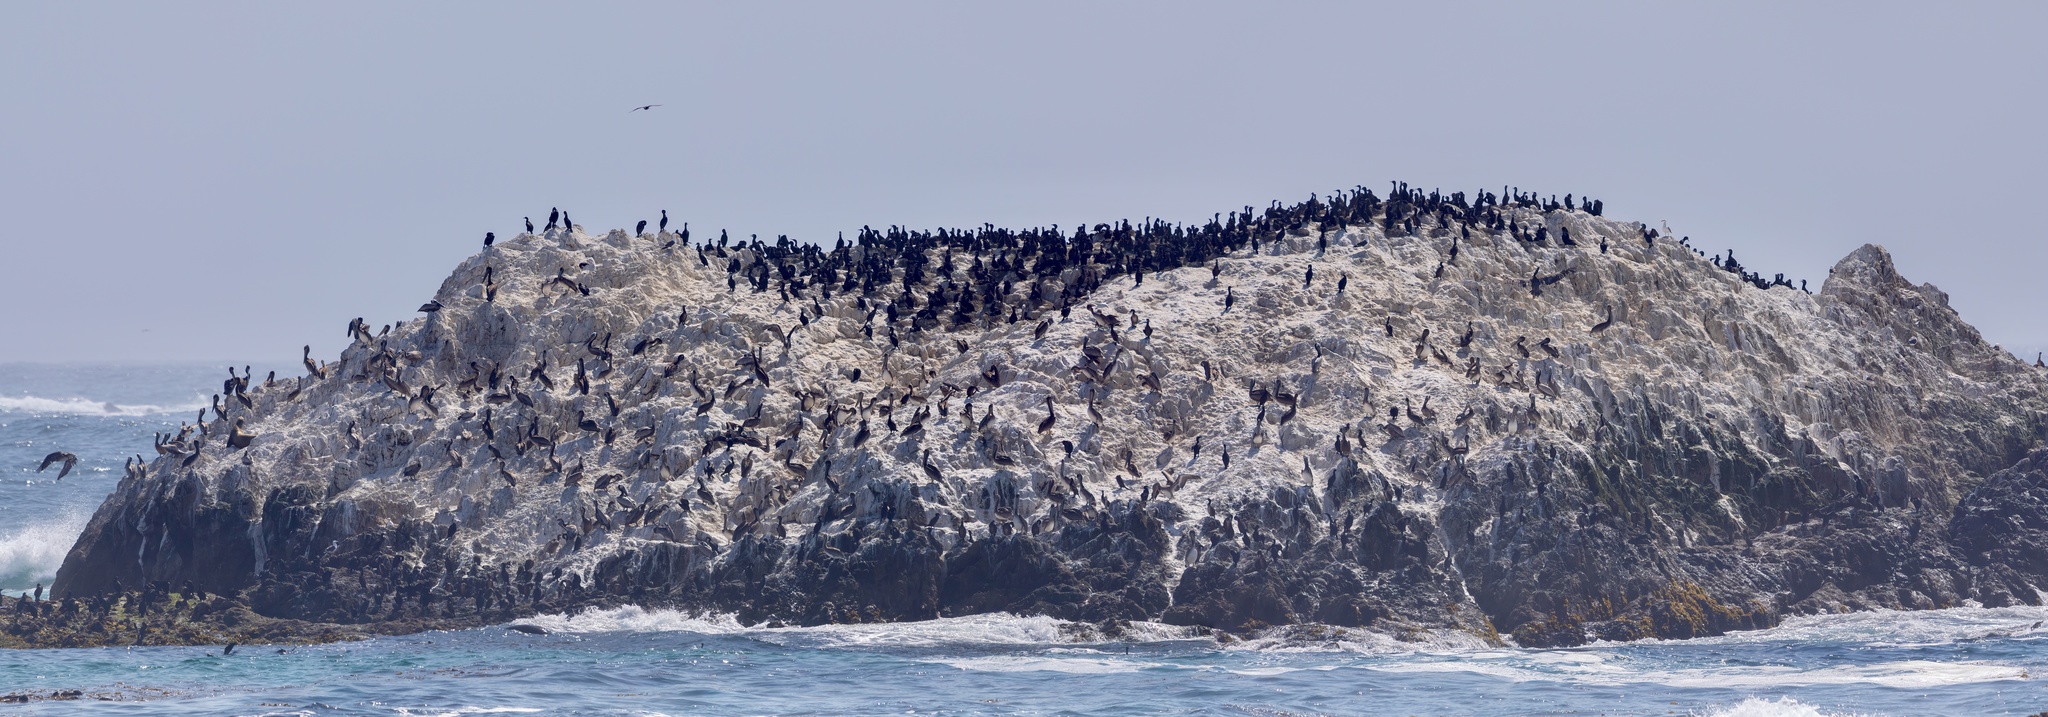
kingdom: Animalia
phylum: Chordata
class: Aves
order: Pelecaniformes
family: Pelecanidae
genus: Pelecanus
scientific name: Pelecanus occidentalis
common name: Brown pelican
